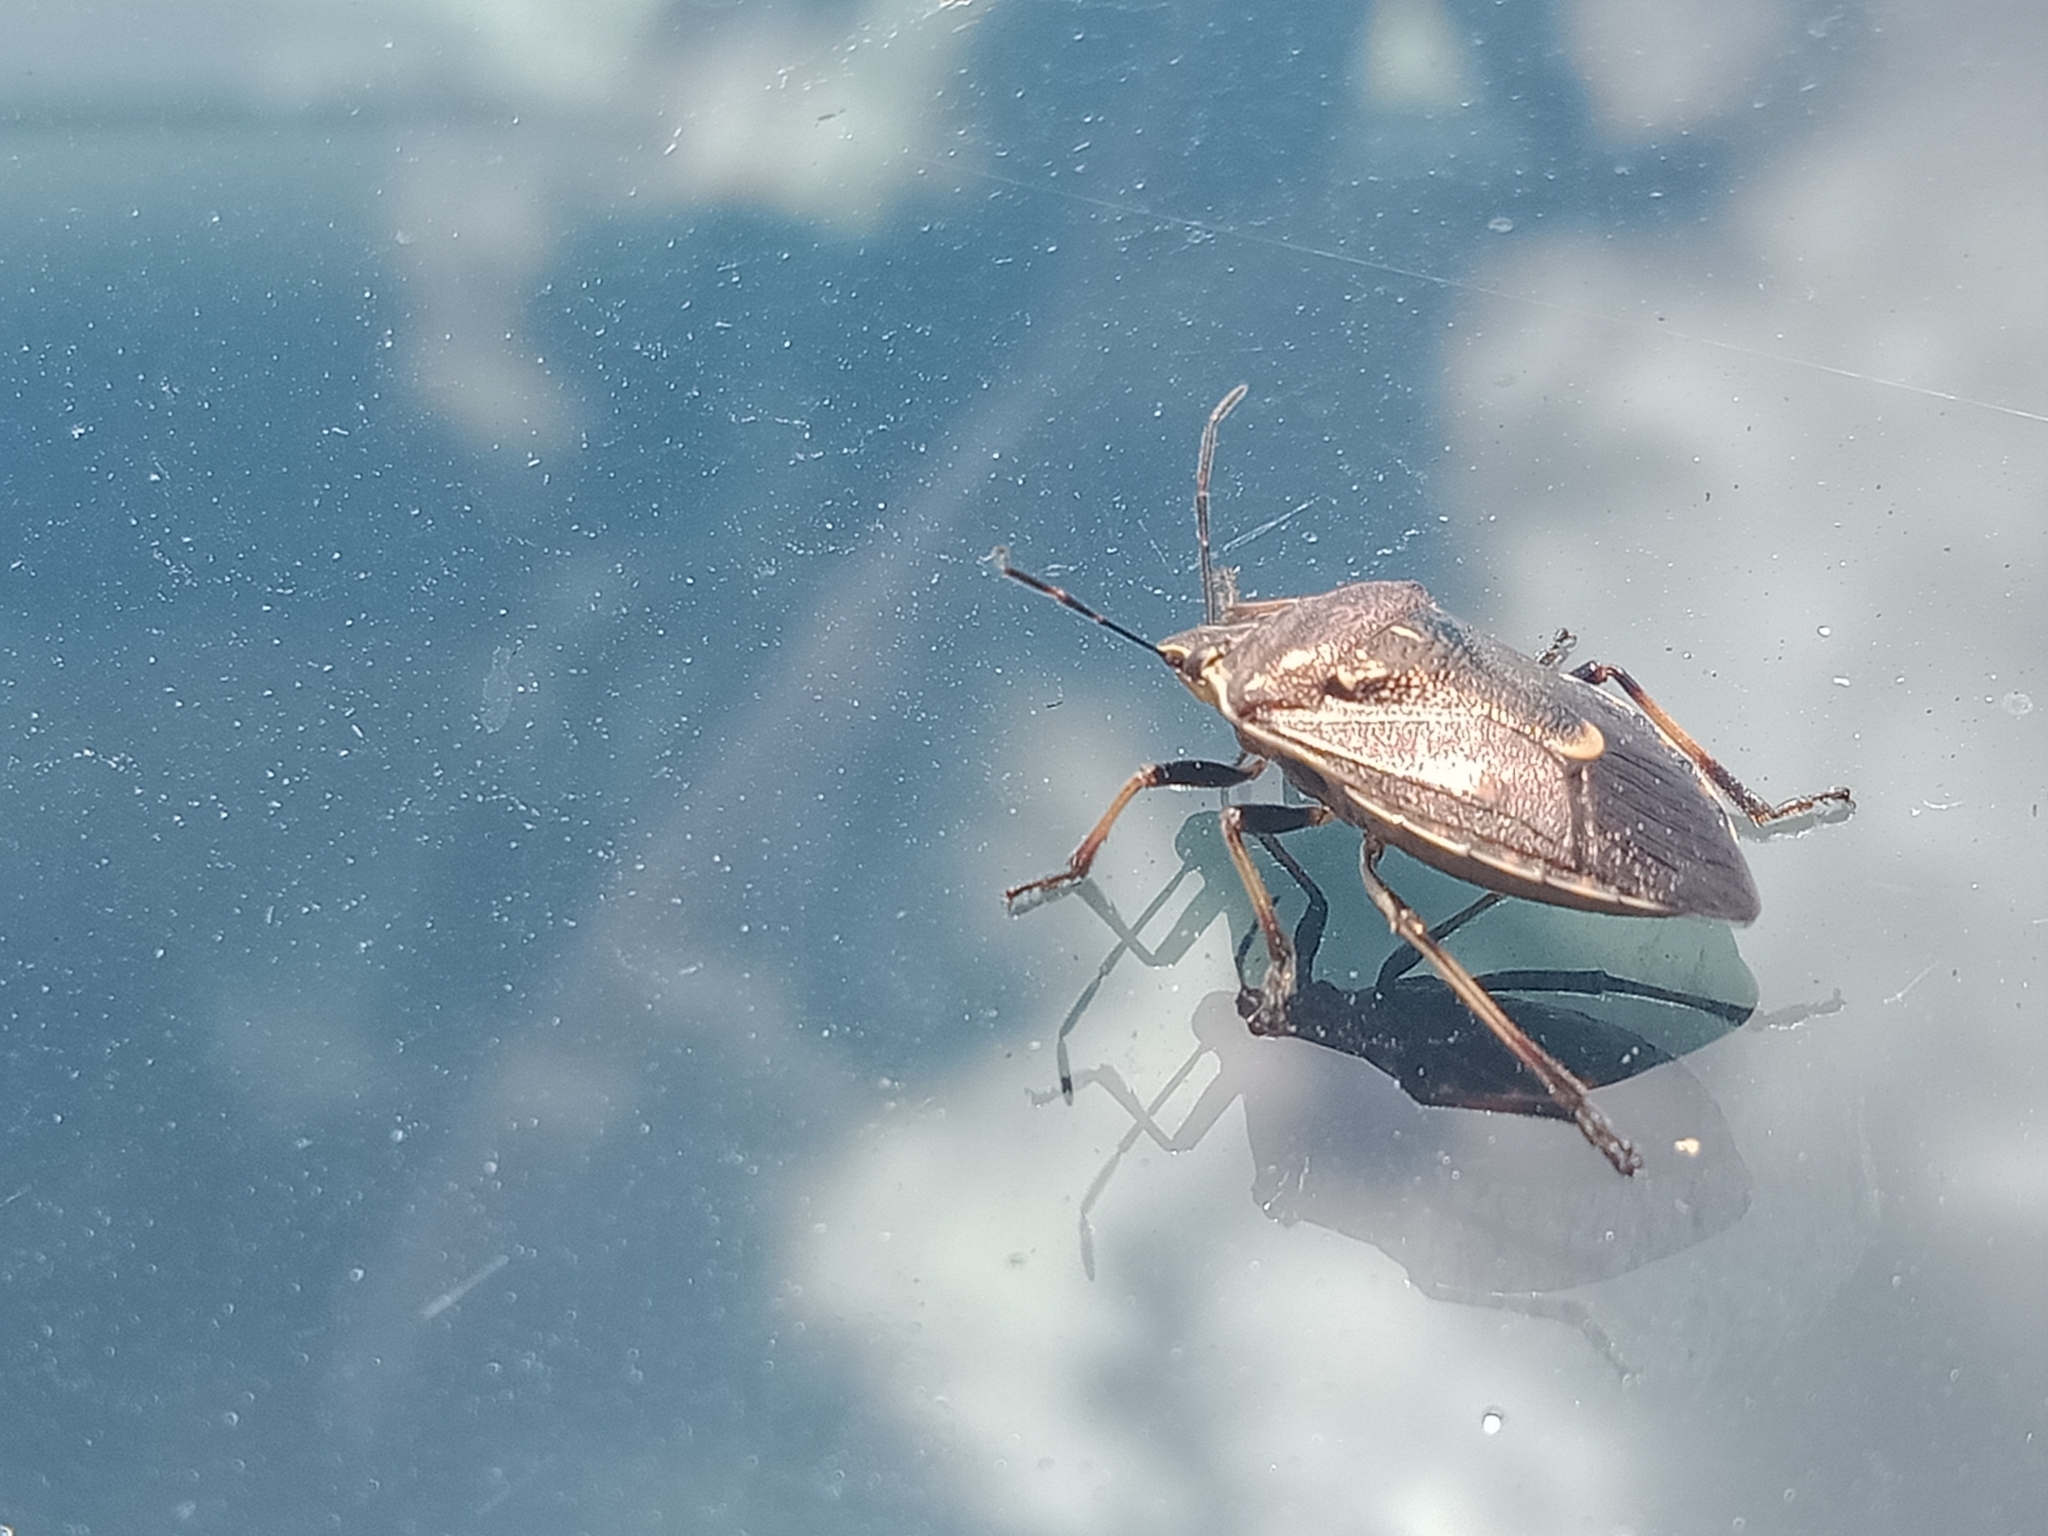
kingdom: Animalia
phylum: Arthropoda
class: Insecta
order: Hemiptera
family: Pentatomidae
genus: Cermatulus
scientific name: Cermatulus nasalis
